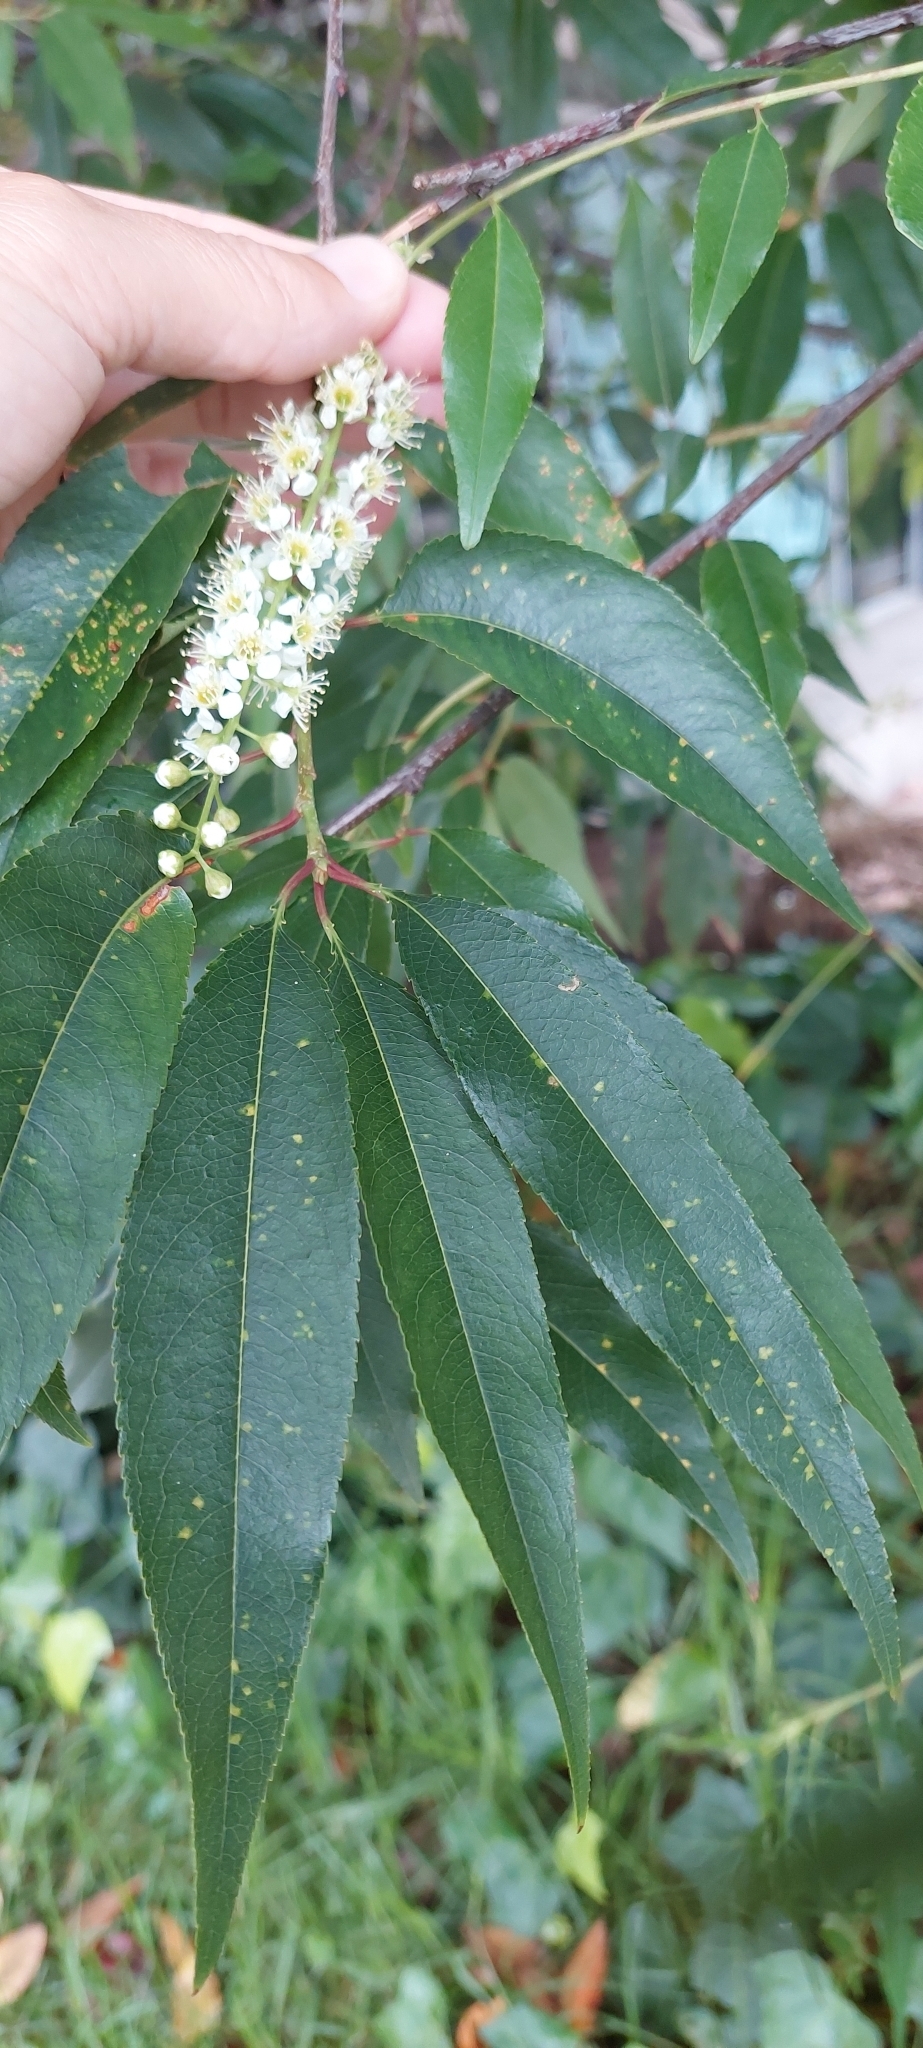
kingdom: Plantae
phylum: Tracheophyta
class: Magnoliopsida
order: Rosales
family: Rosaceae
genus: Prunus
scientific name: Prunus serotina
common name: Black cherry
